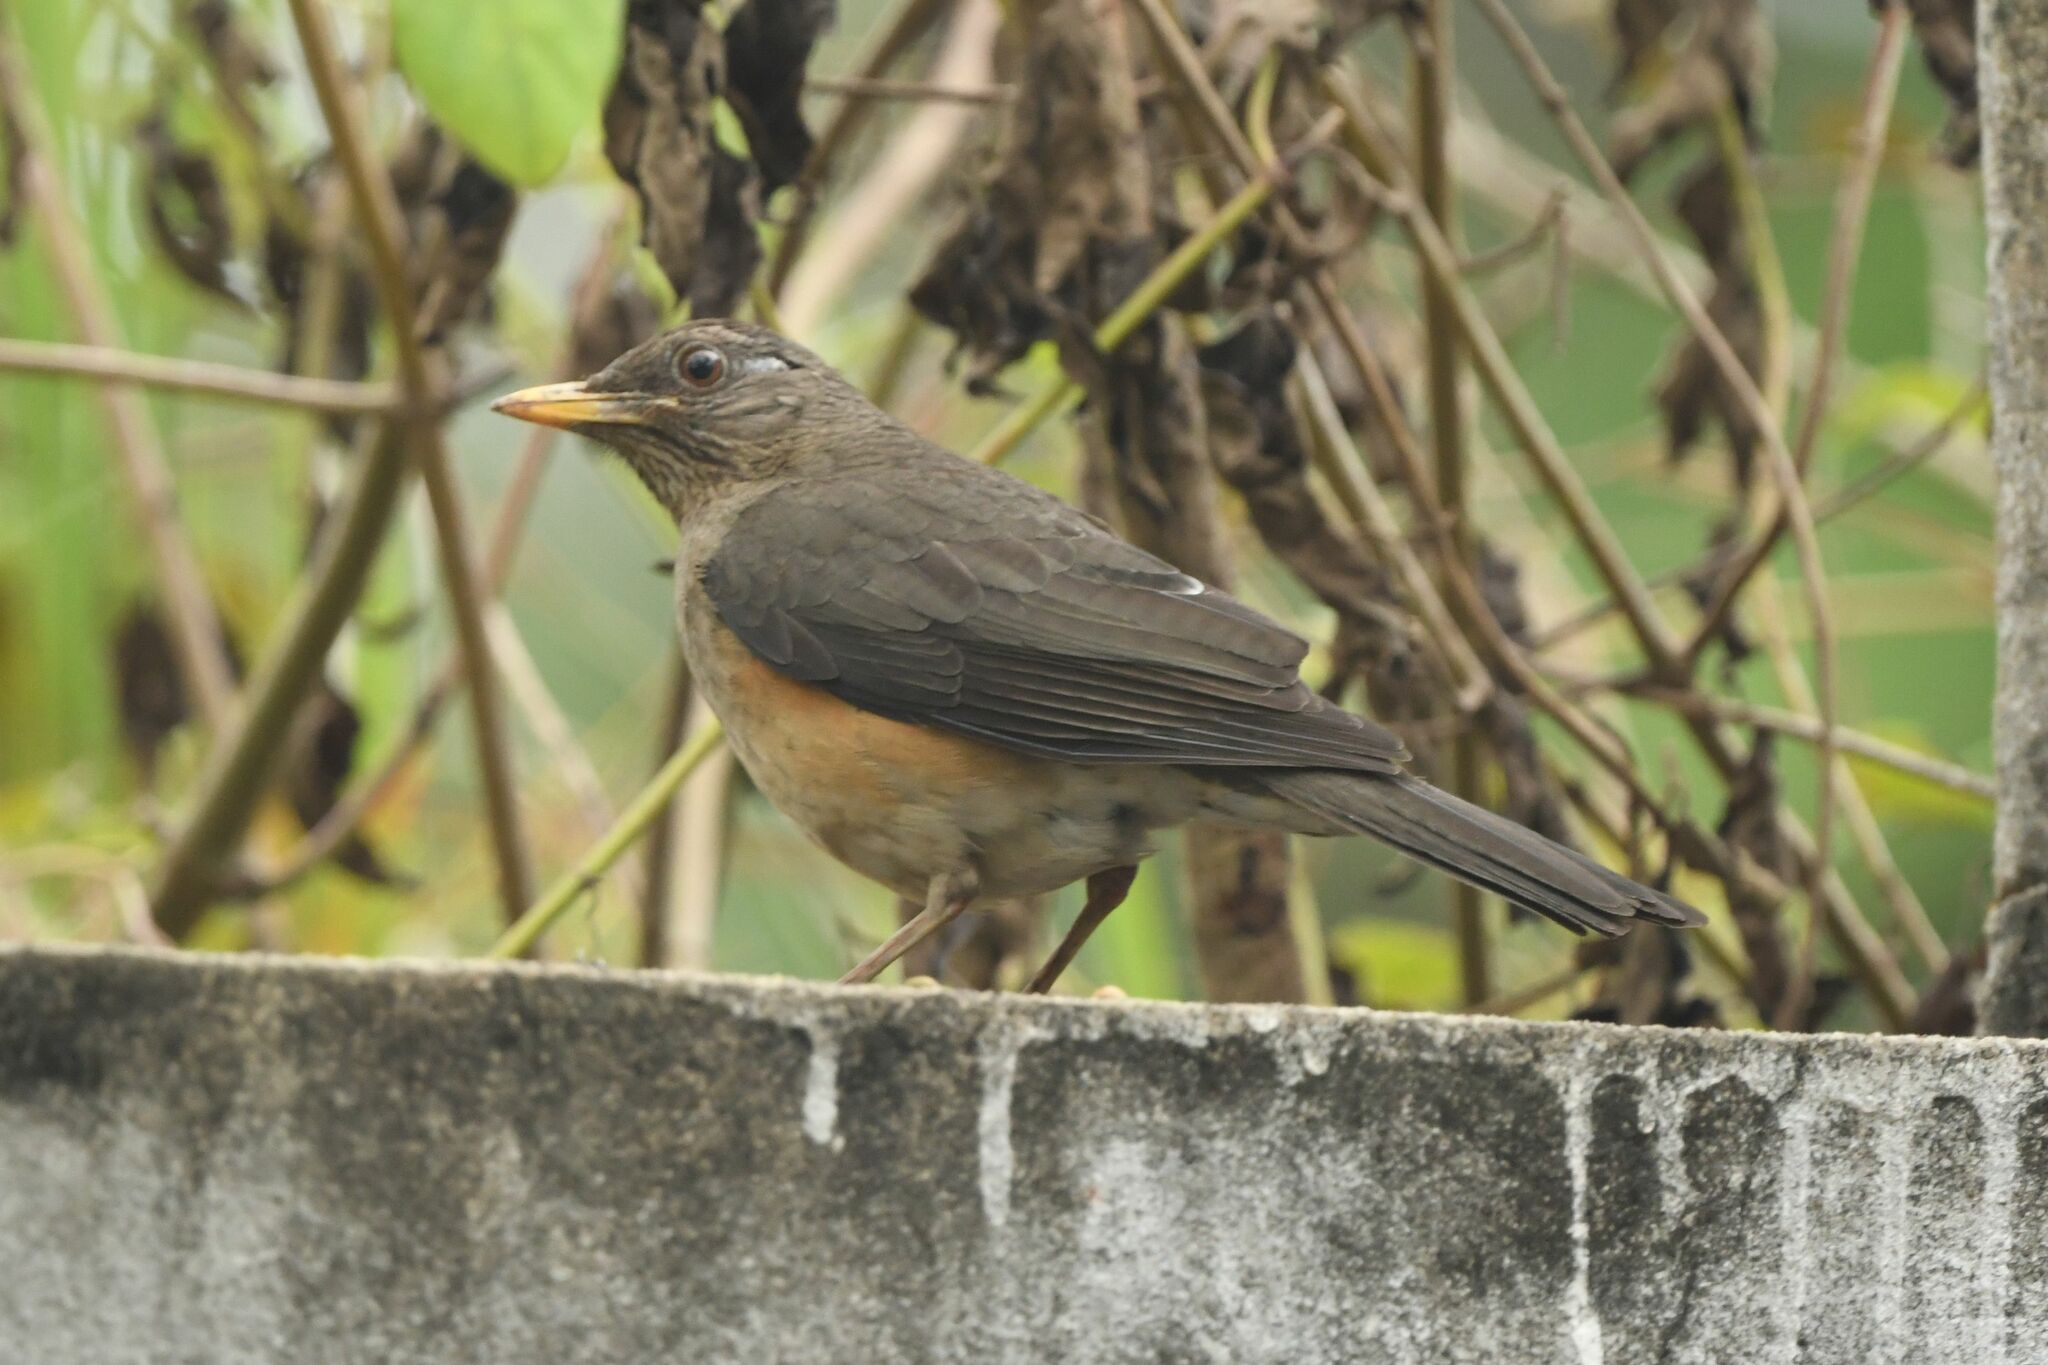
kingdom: Animalia
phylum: Chordata
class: Aves
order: Passeriformes
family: Turdidae
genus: Turdus
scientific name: Turdus pelios
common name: African thrush
